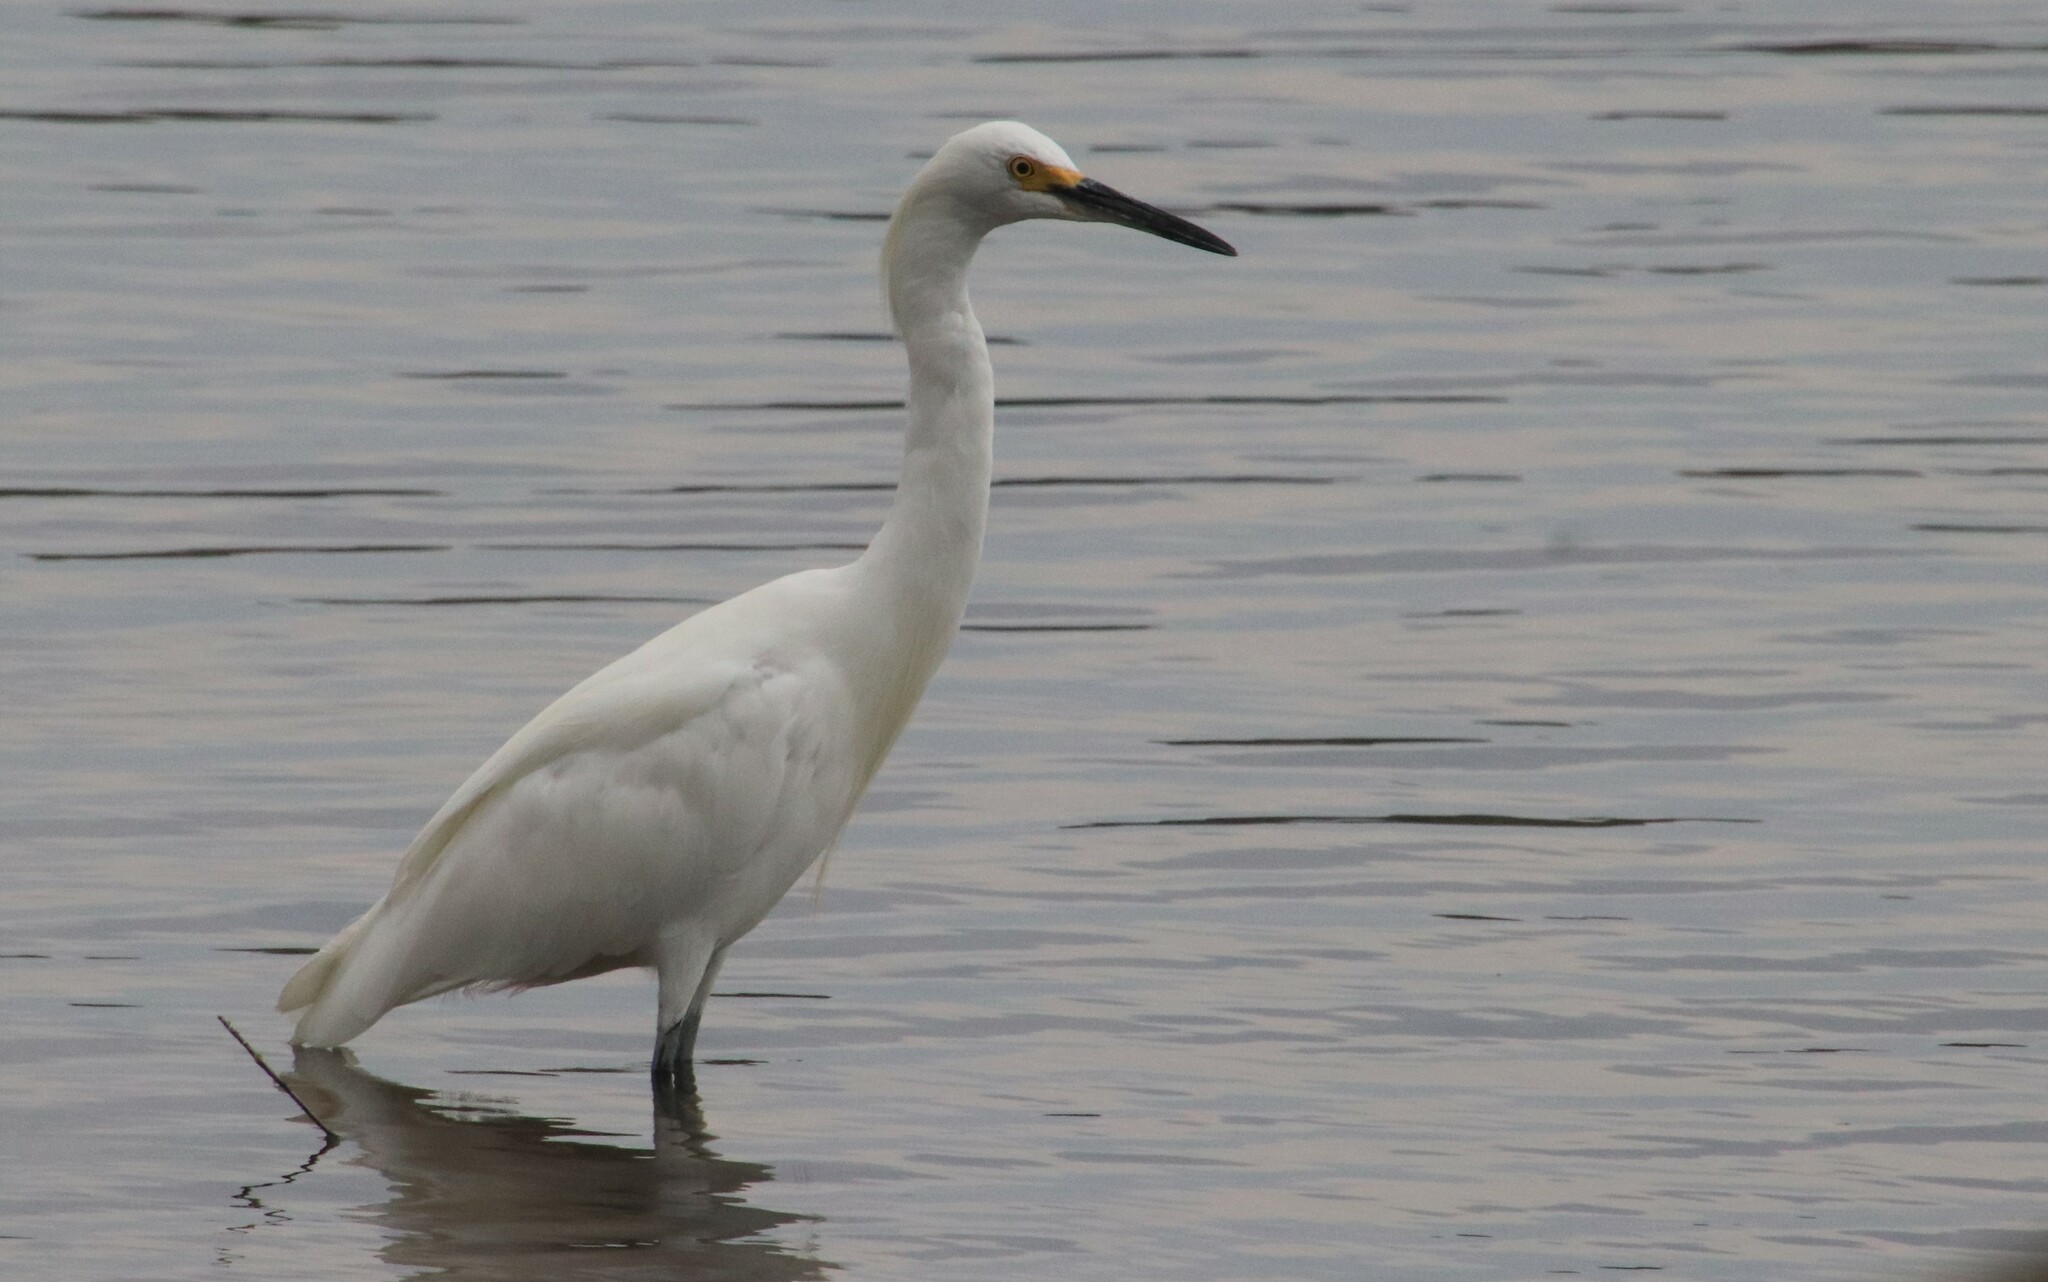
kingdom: Animalia
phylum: Chordata
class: Aves
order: Pelecaniformes
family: Ardeidae
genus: Egretta
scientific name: Egretta thula
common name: Snowy egret
